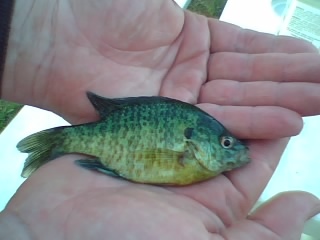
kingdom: Animalia
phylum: Chordata
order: Perciformes
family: Centrarchidae
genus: Lepomis
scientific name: Lepomis
